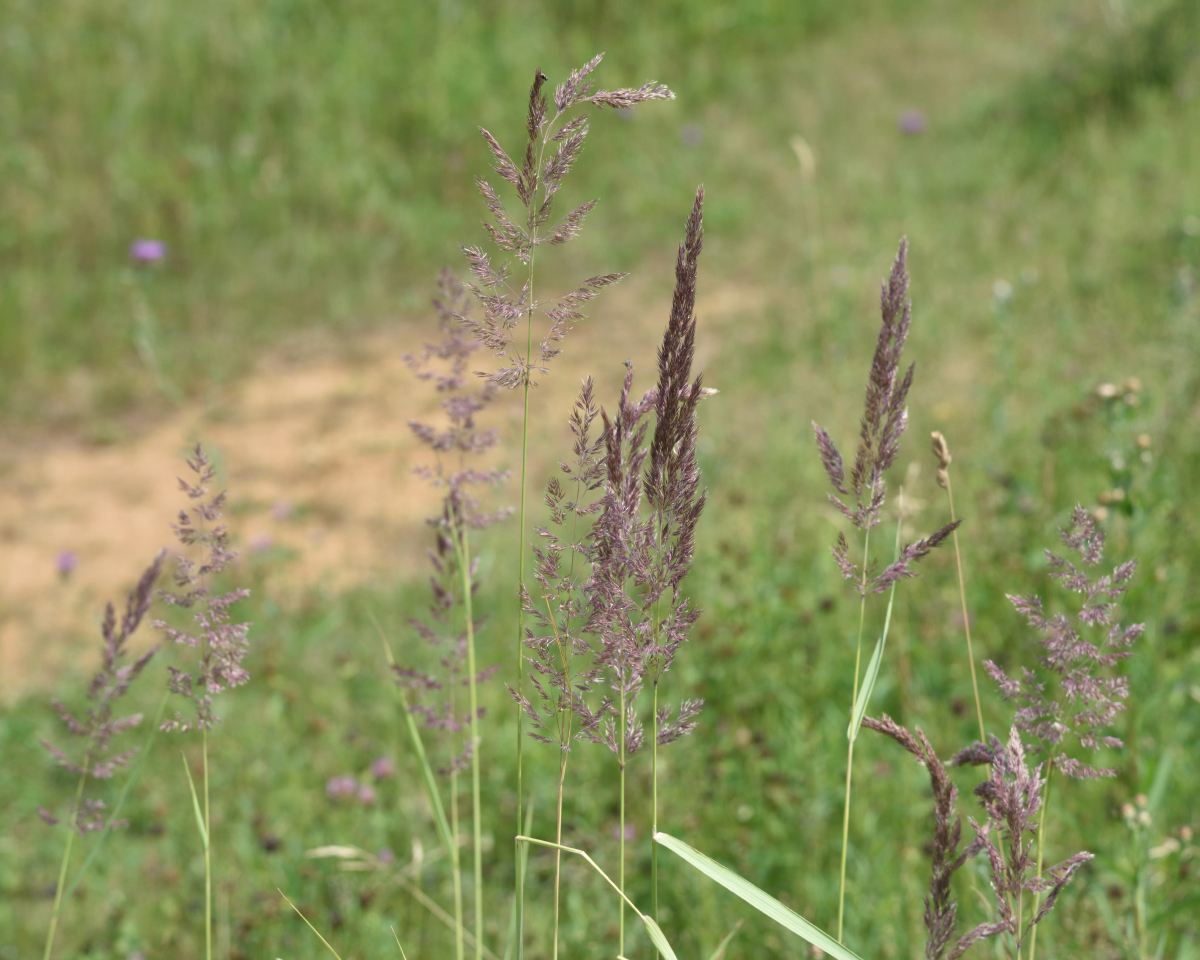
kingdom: Plantae
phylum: Tracheophyta
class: Liliopsida
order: Poales
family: Poaceae
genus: Calamagrostis
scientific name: Calamagrostis epigejos
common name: Wood small-reed
